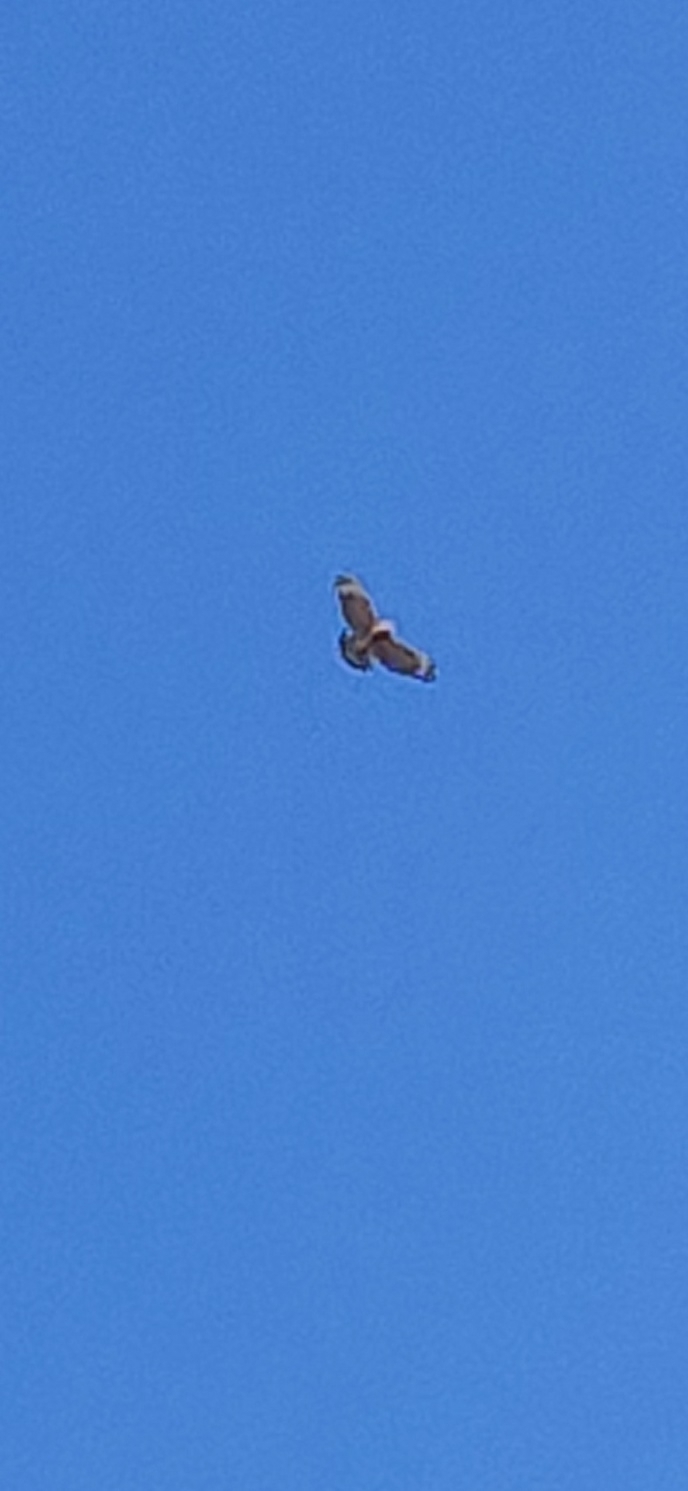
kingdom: Animalia
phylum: Chordata
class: Aves
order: Accipitriformes
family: Accipitridae
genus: Buteo
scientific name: Buteo lineatus
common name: Red-shouldered hawk
